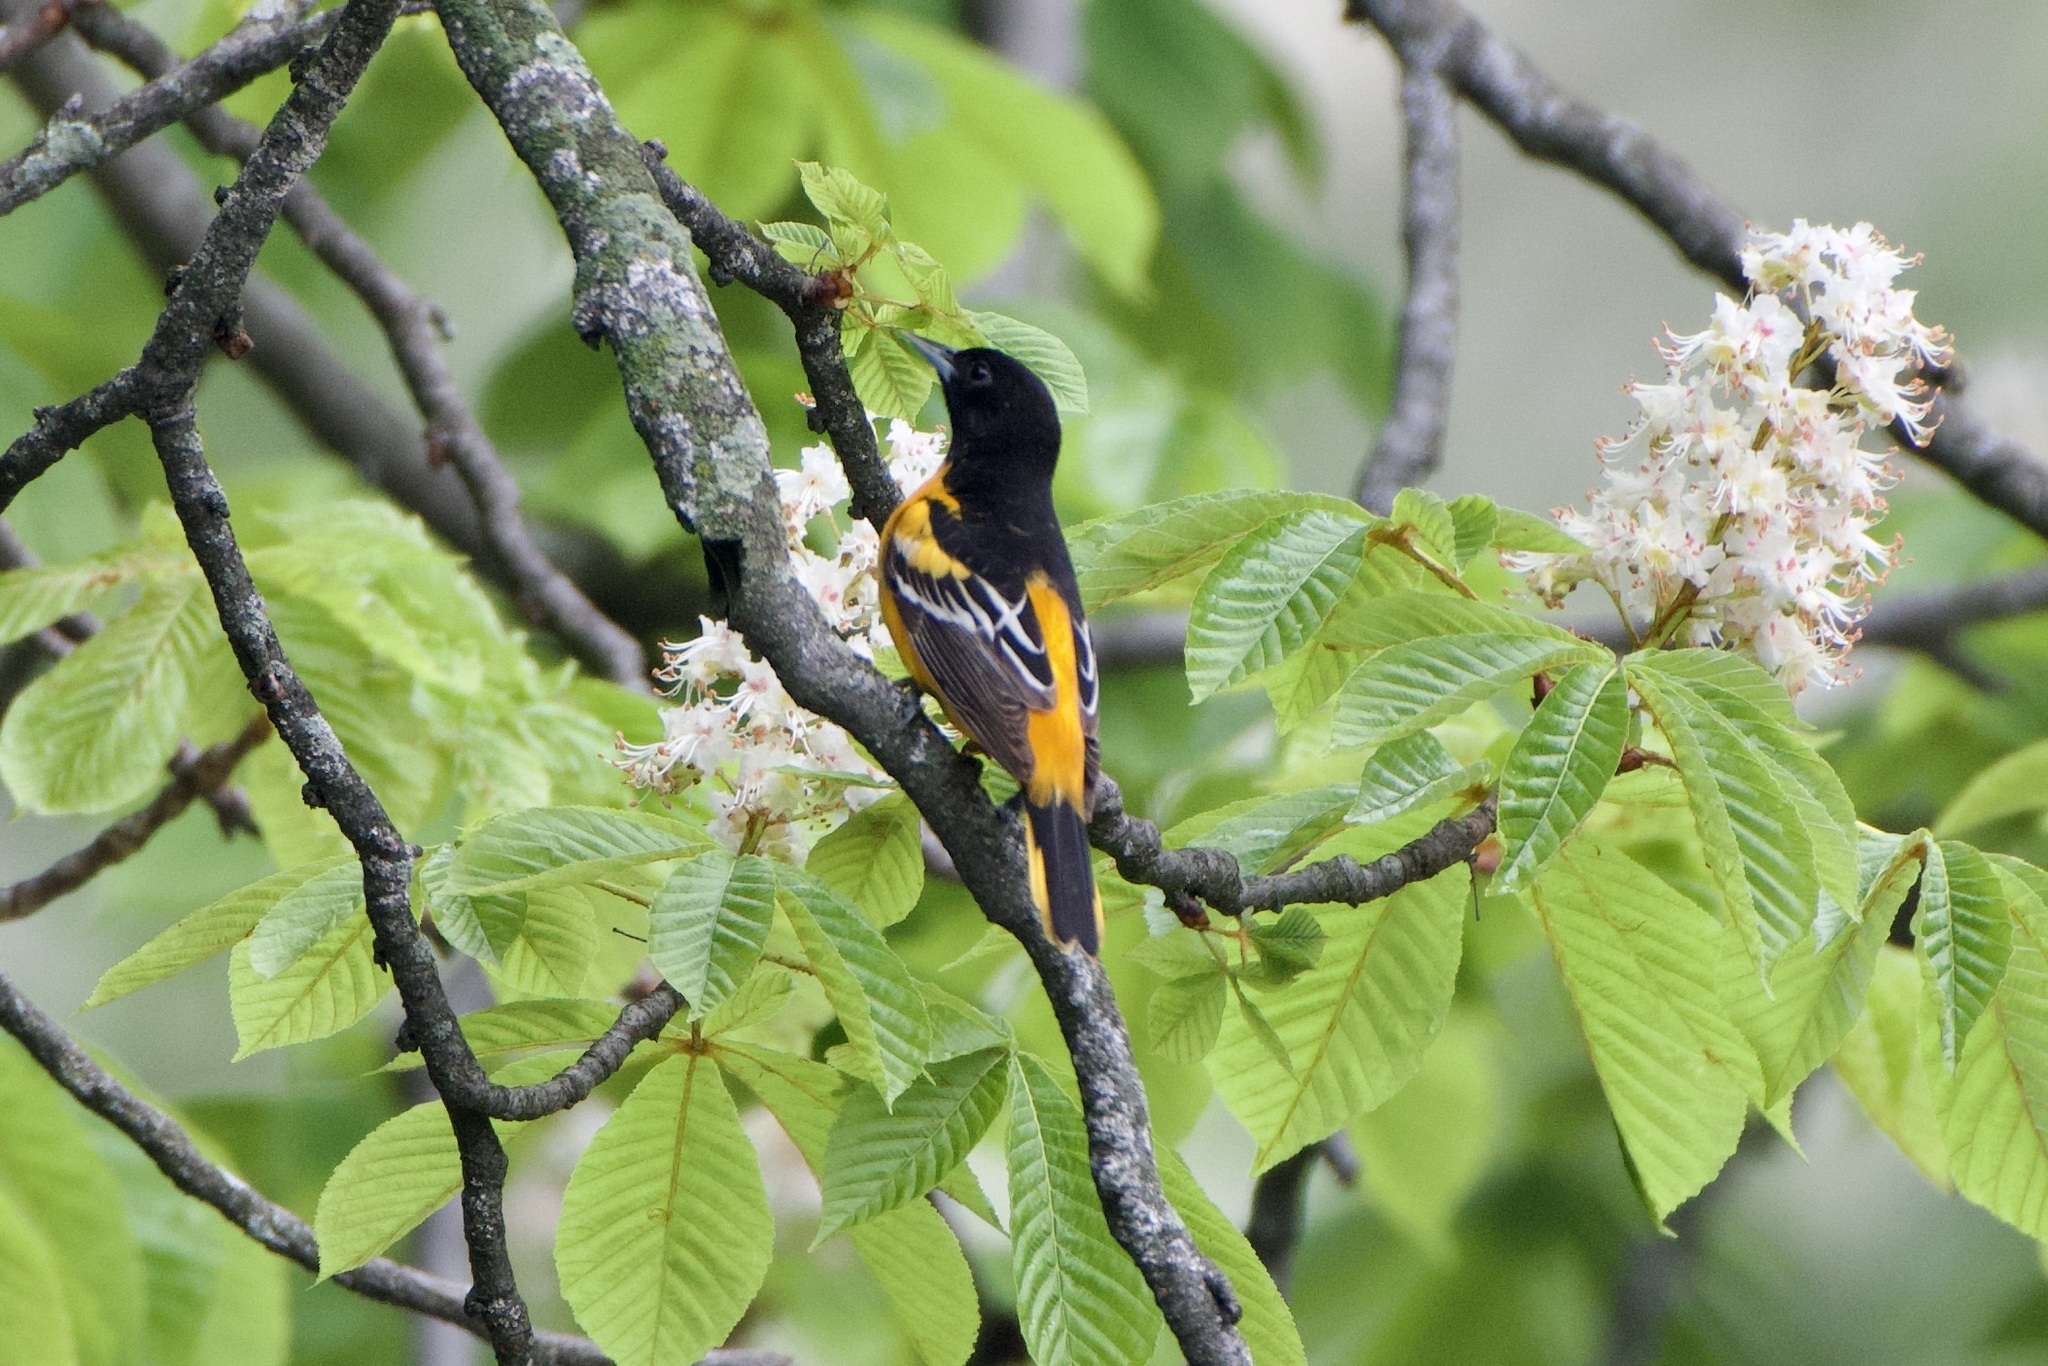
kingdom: Animalia
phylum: Chordata
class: Aves
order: Passeriformes
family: Icteridae
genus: Icterus
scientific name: Icterus galbula
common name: Baltimore oriole
